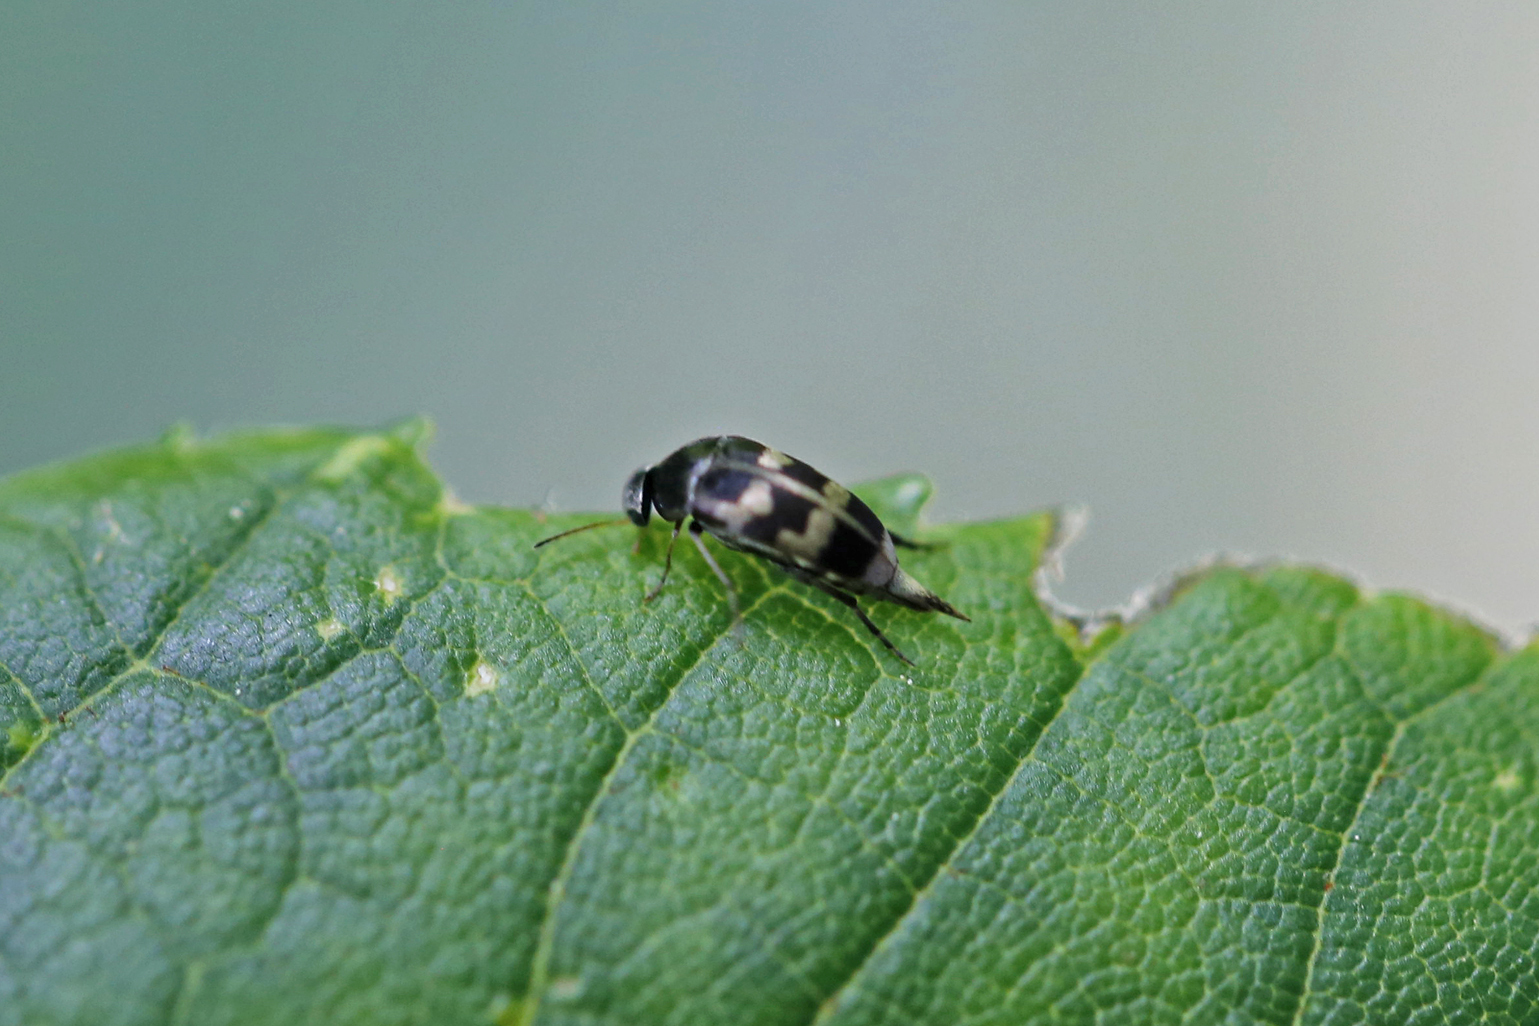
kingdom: Animalia
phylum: Arthropoda
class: Insecta
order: Coleoptera
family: Mordellidae
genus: Falsomordellistena
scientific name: Falsomordellistena pubescens
